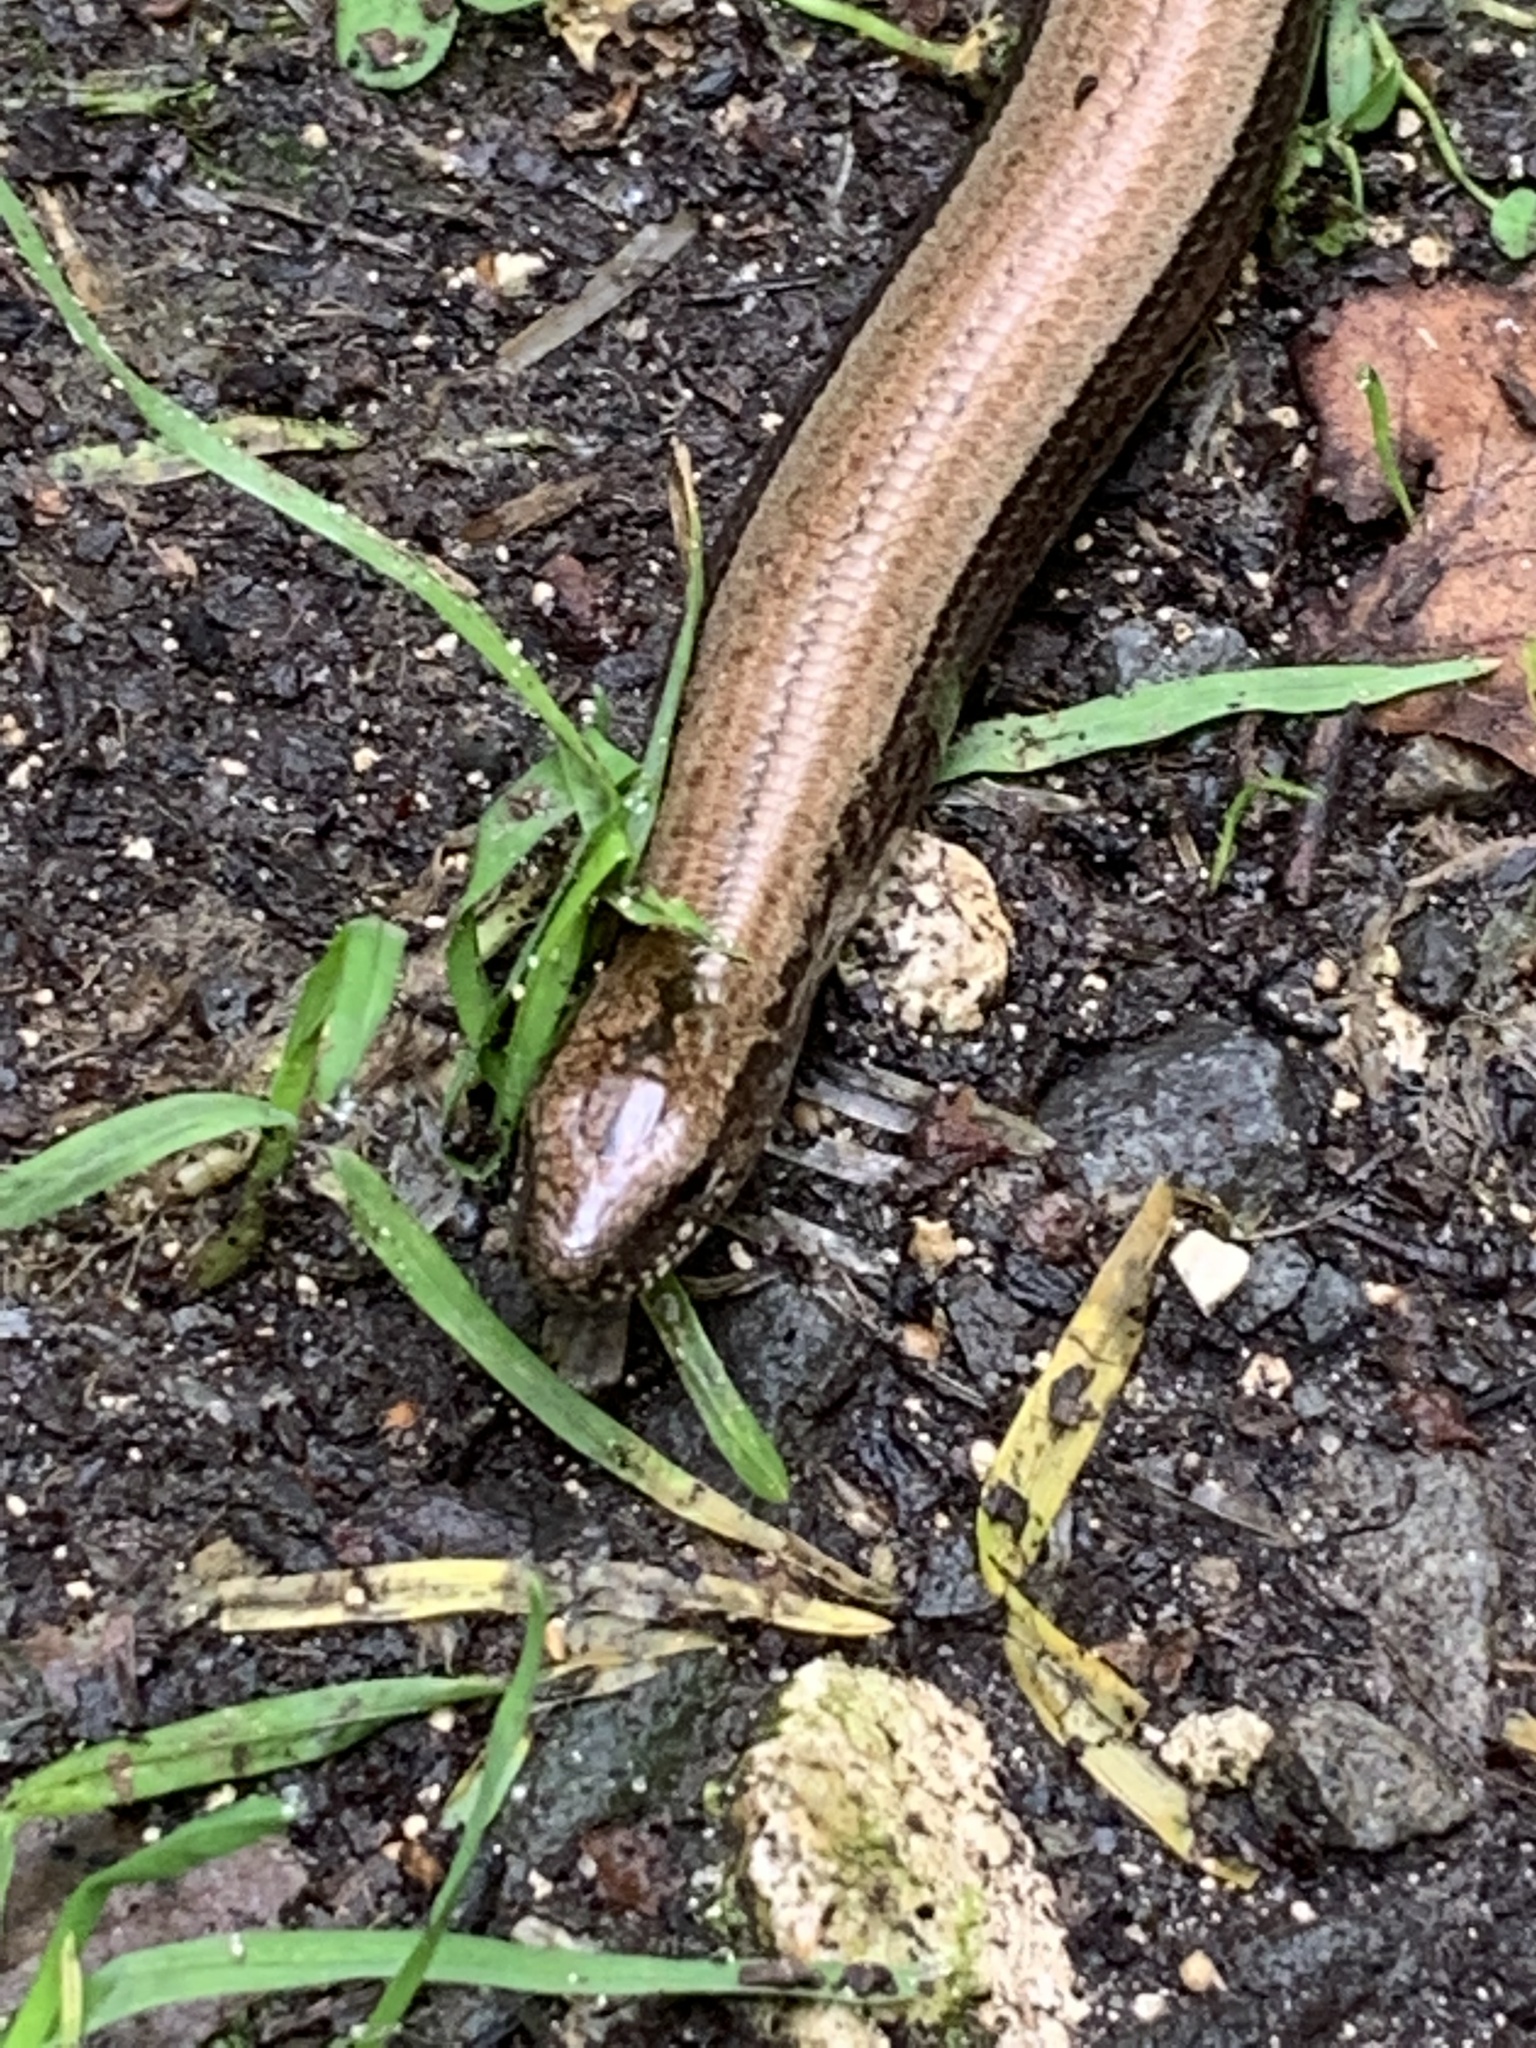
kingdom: Animalia
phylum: Chordata
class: Squamata
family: Anguidae
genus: Anguis
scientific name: Anguis fragilis
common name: Slow worm
